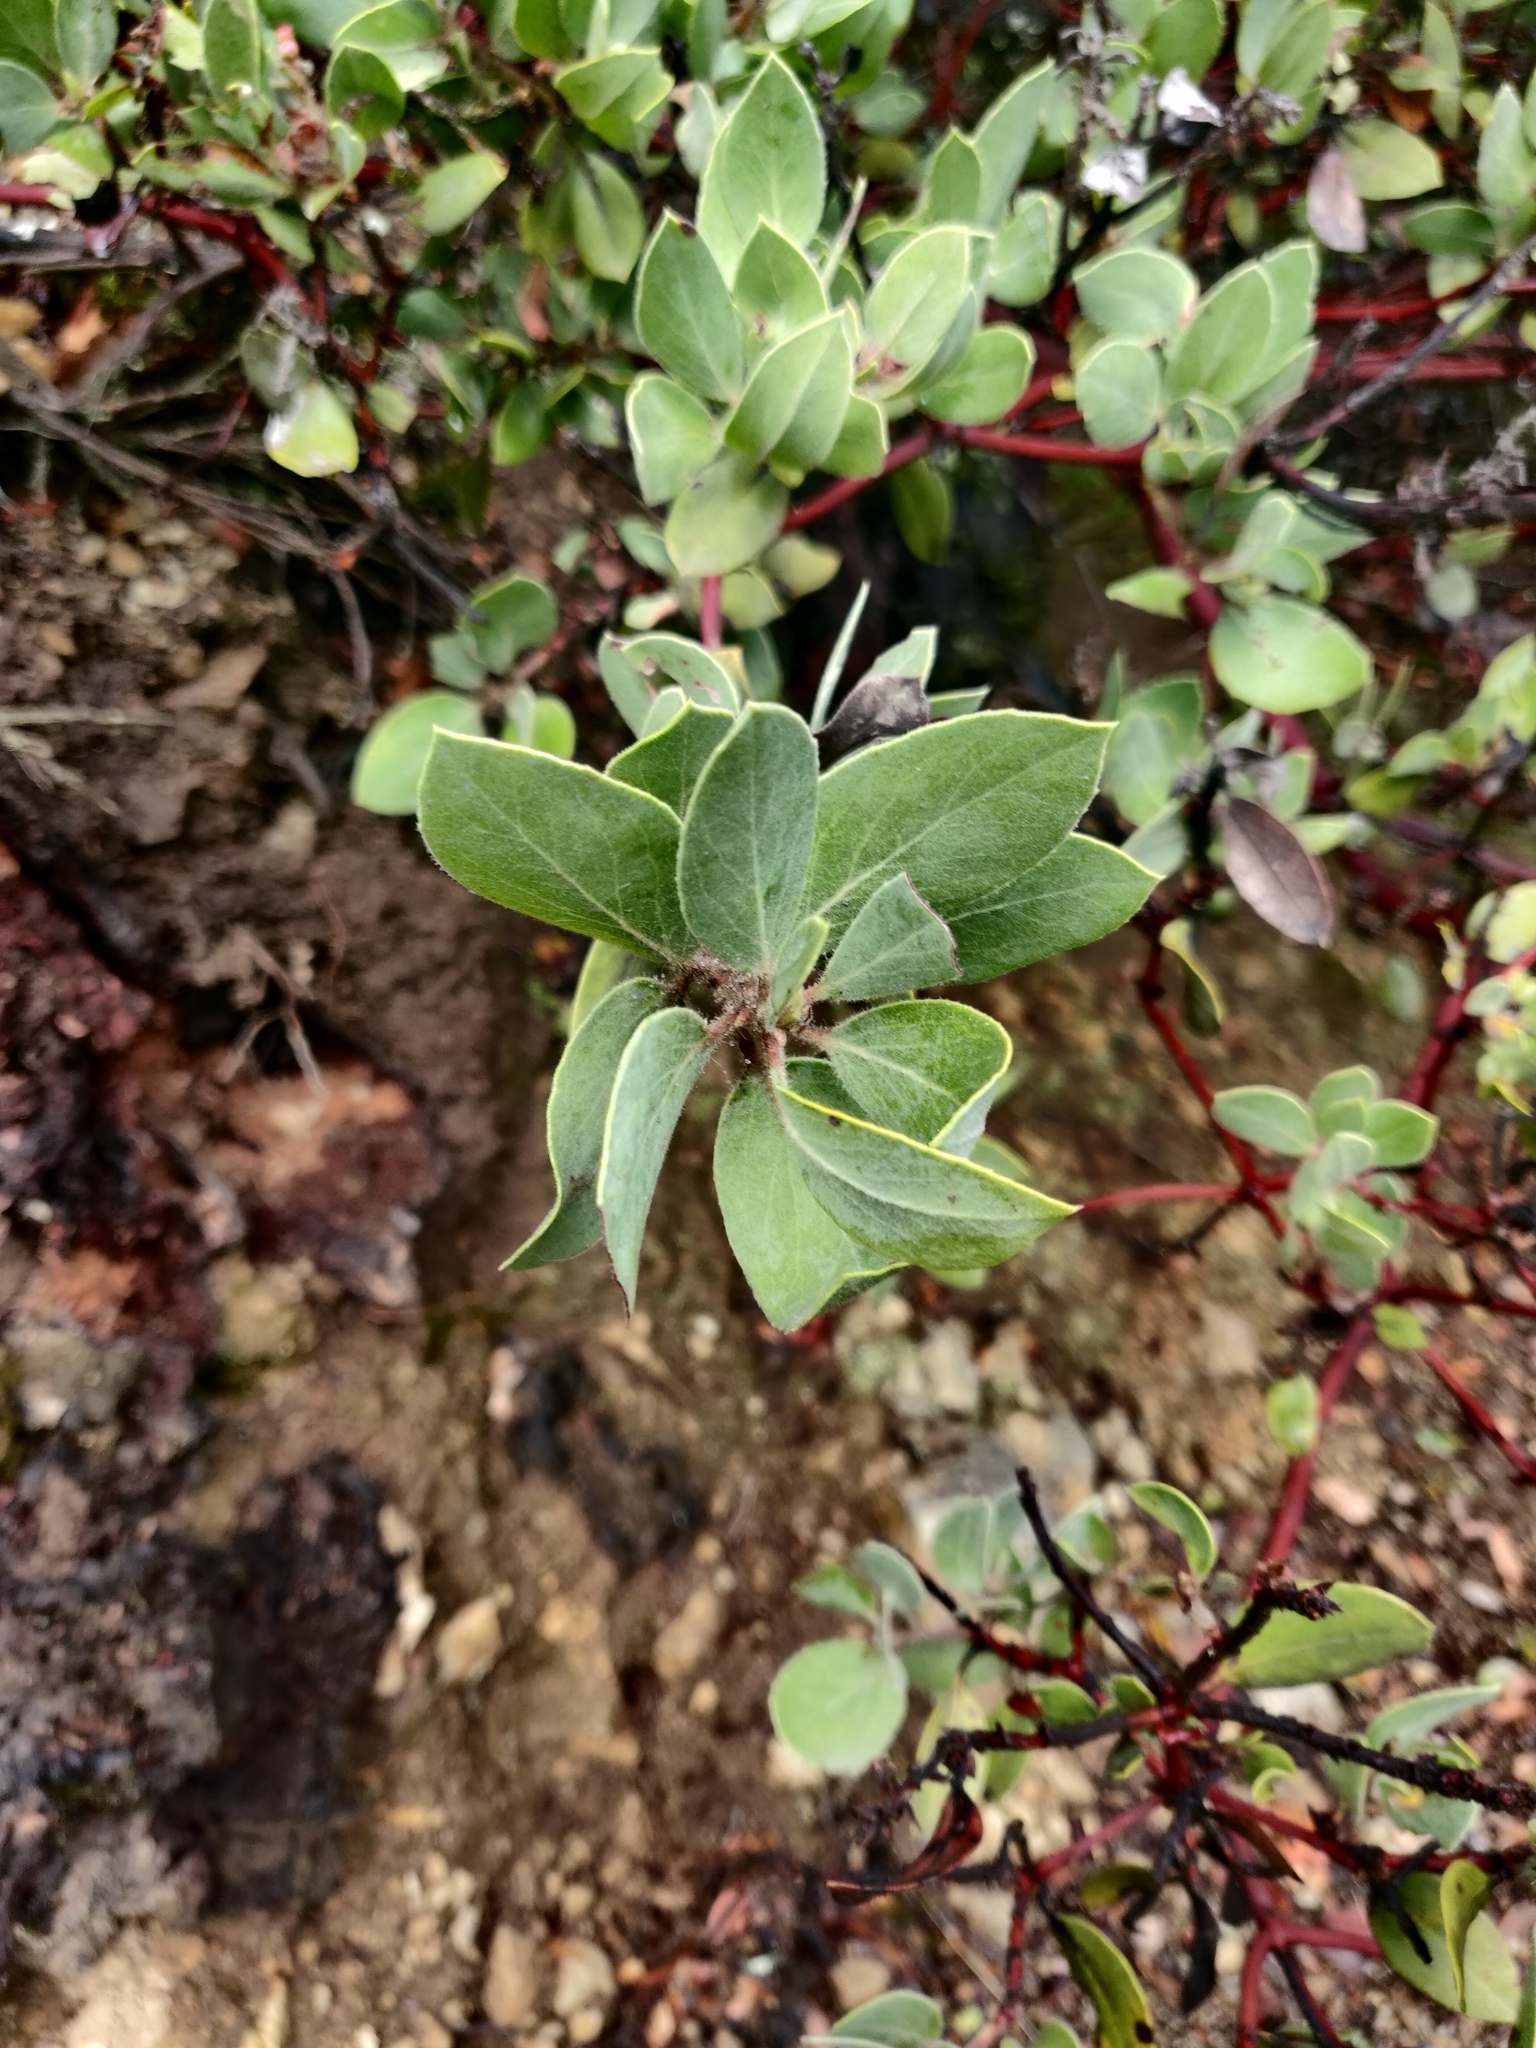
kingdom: Plantae
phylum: Tracheophyta
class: Magnoliopsida
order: Ericales
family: Ericaceae
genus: Arctostaphylos
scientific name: Arctostaphylos glandulosa
